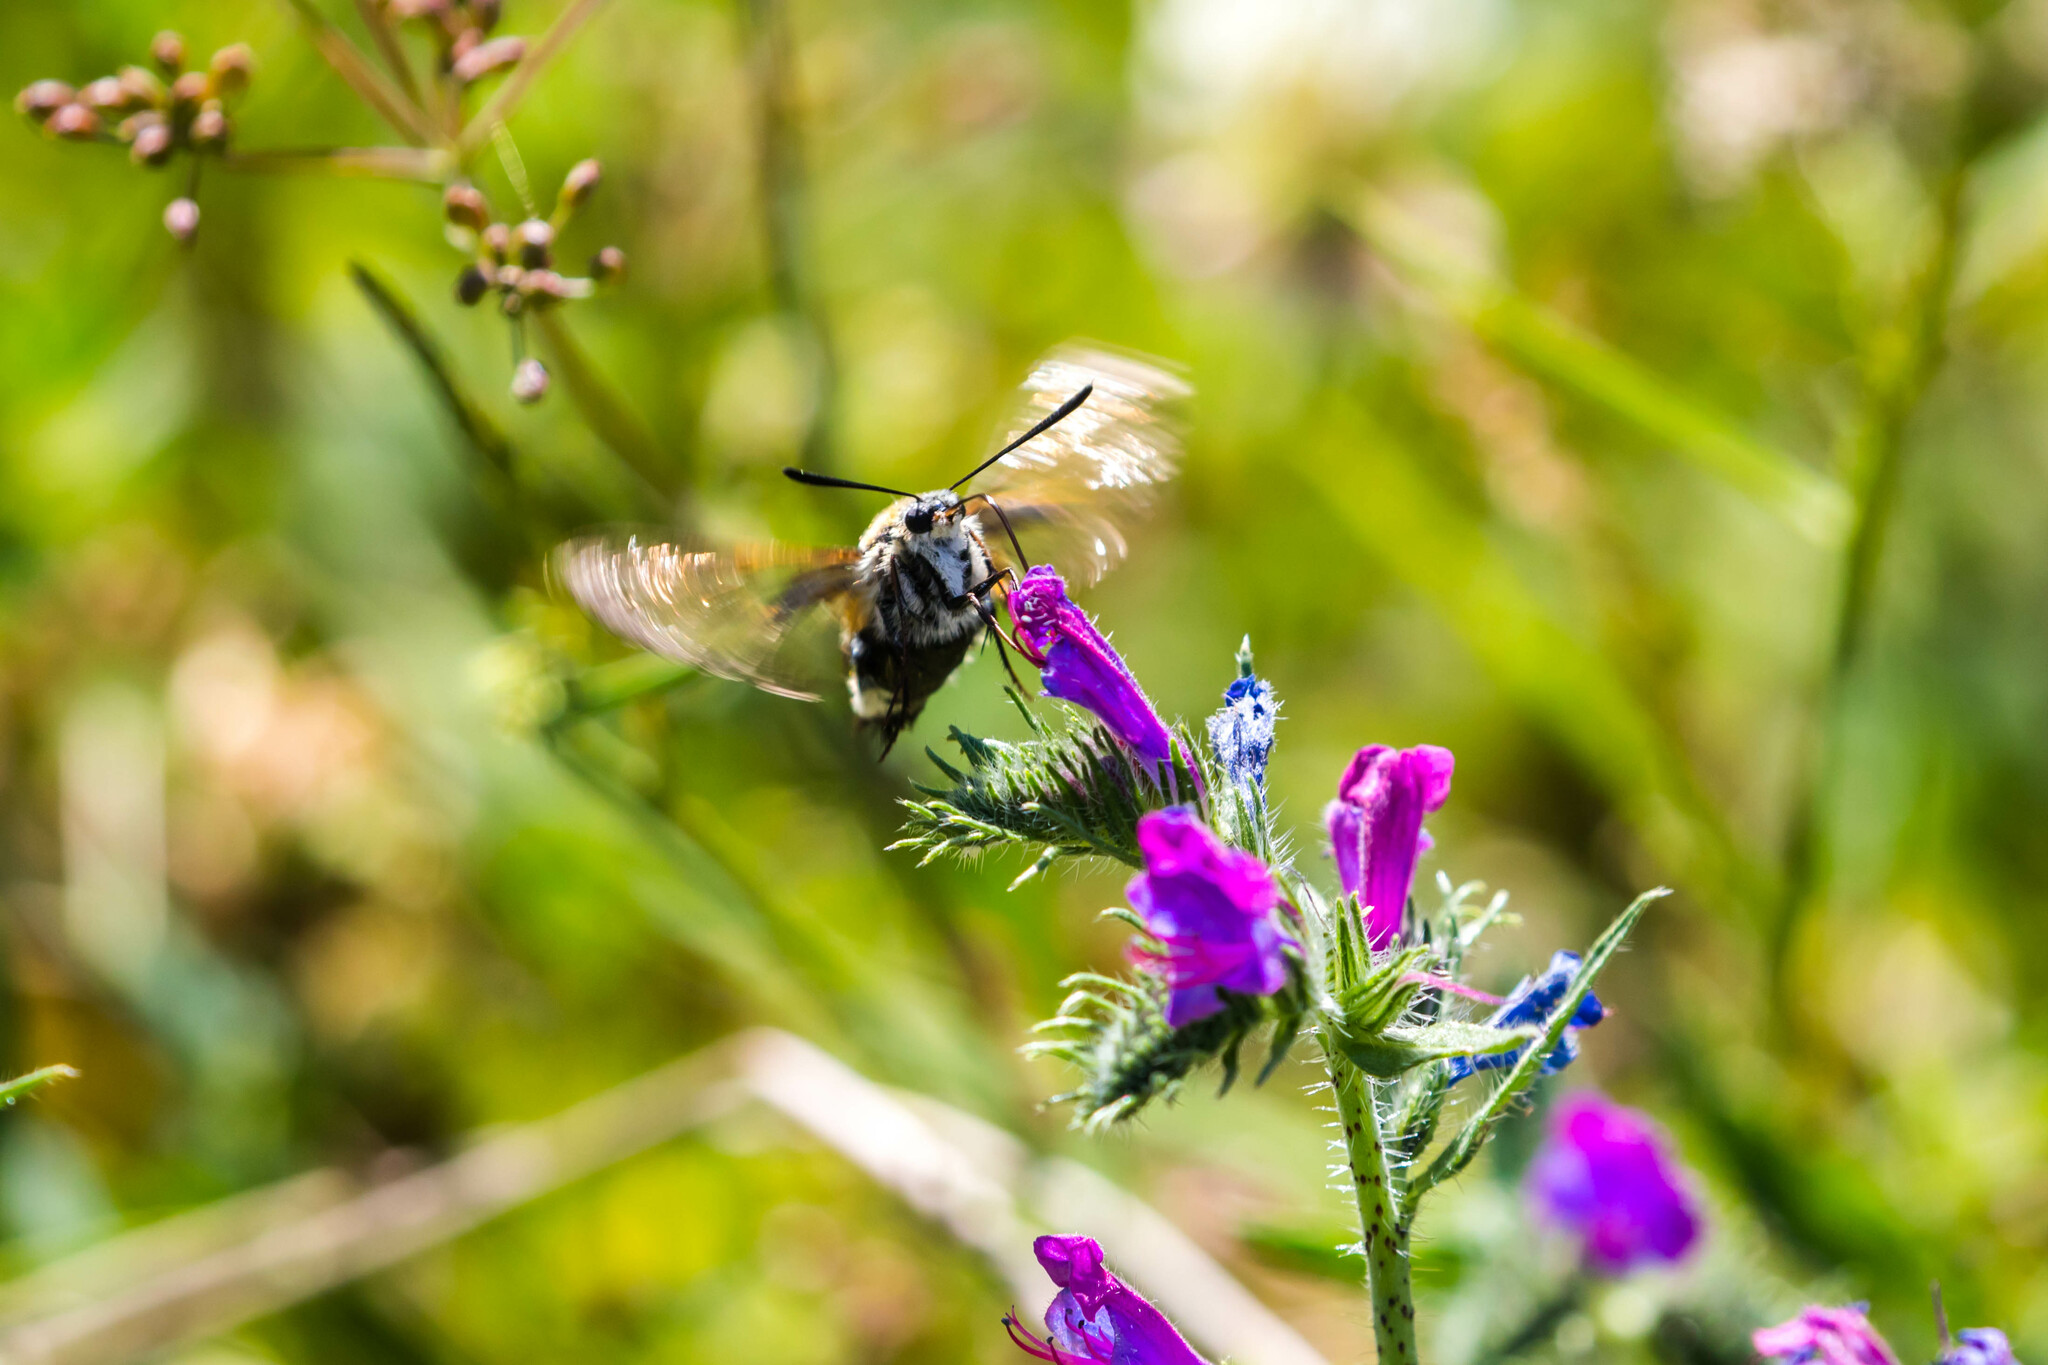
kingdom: Animalia
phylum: Arthropoda
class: Insecta
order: Lepidoptera
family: Sphingidae
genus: Hemaris
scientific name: Hemaris fuciformis
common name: Broad-bordered bee hawk-moth
